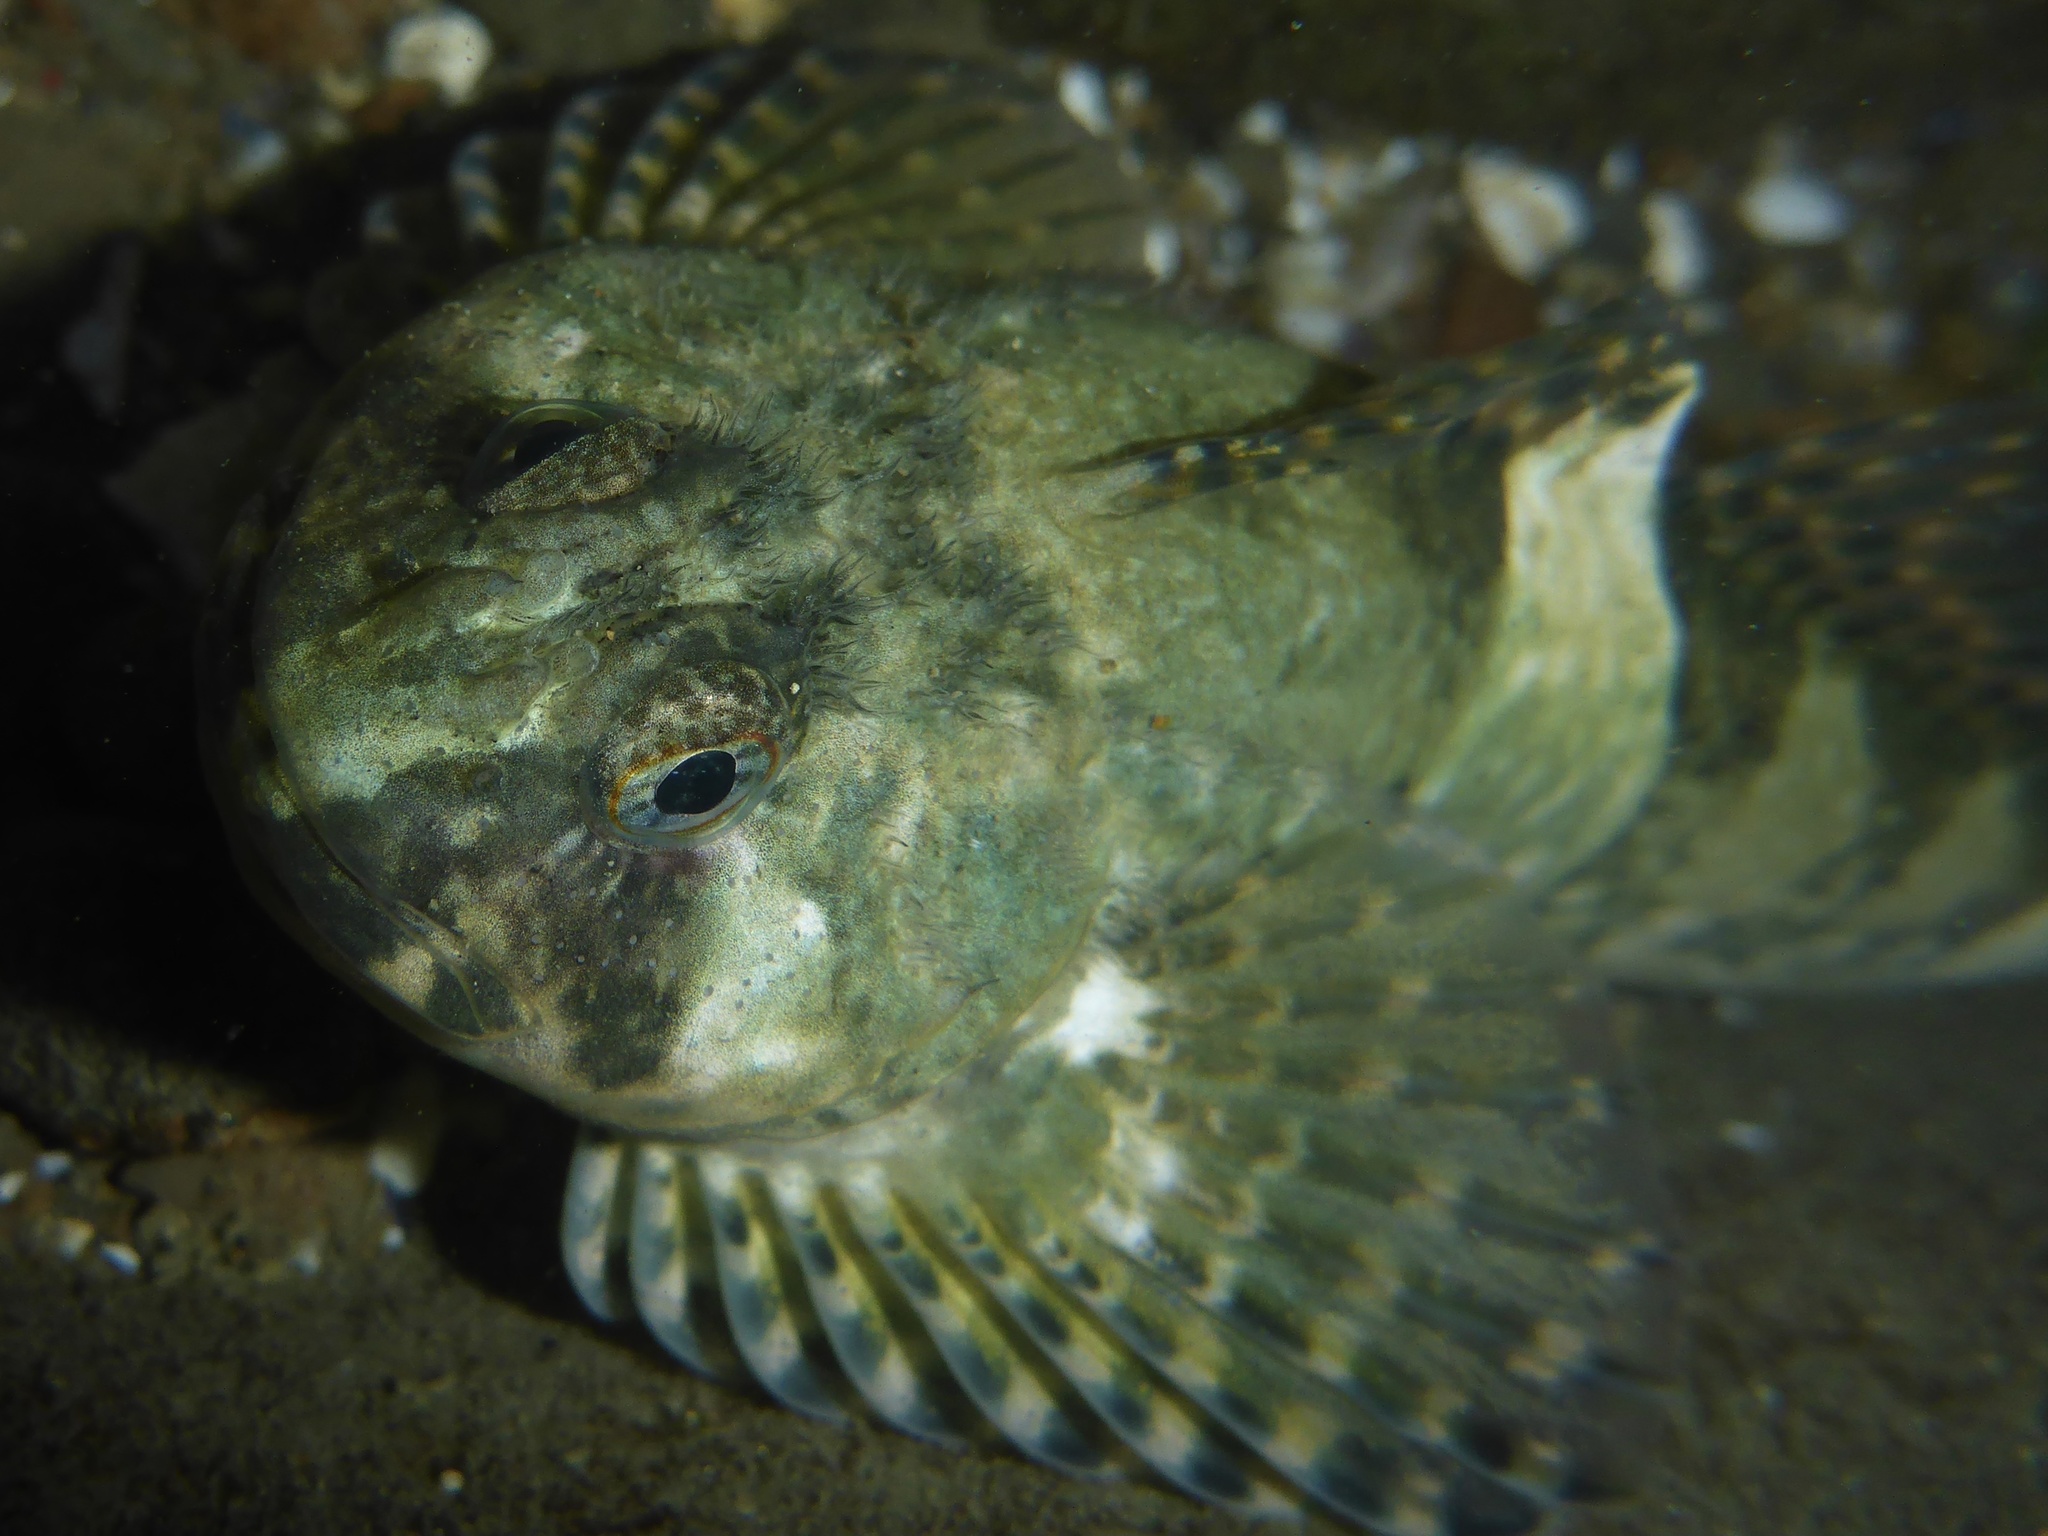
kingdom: Animalia
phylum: Chordata
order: Scorpaeniformes
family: Cottidae
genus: Clinocottus
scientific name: Clinocottus globiceps
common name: Mosshead sculpin
